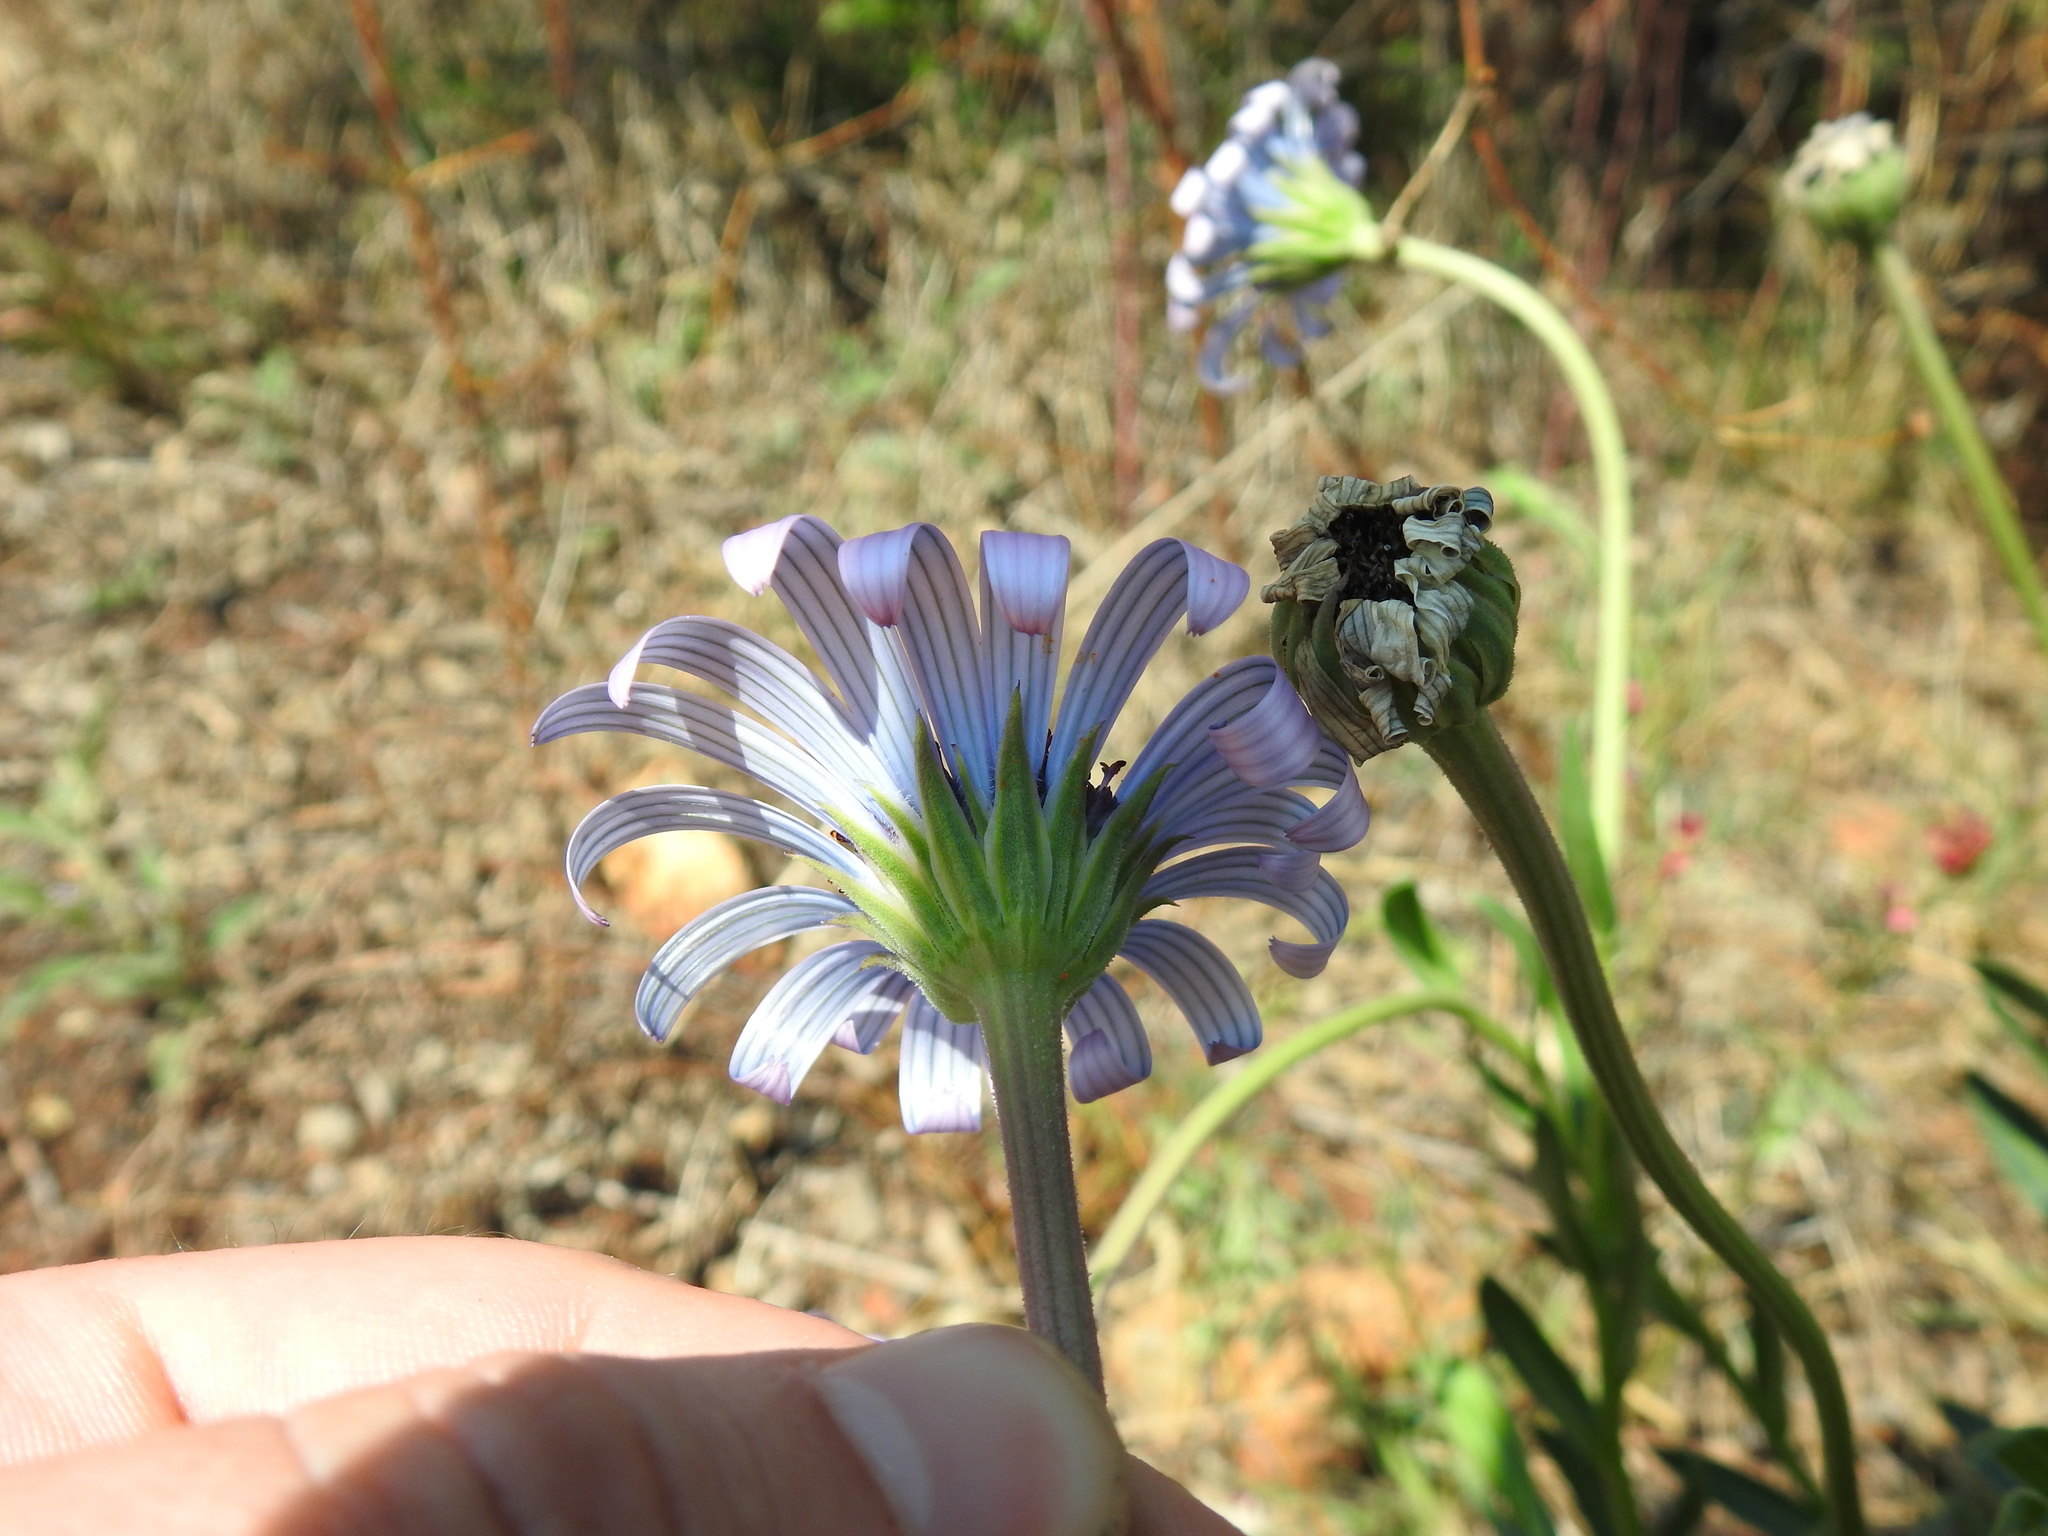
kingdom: Plantae
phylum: Tracheophyta
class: Magnoliopsida
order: Asterales
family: Asteraceae
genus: Dimorphotheca
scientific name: Dimorphotheca spectabilis
